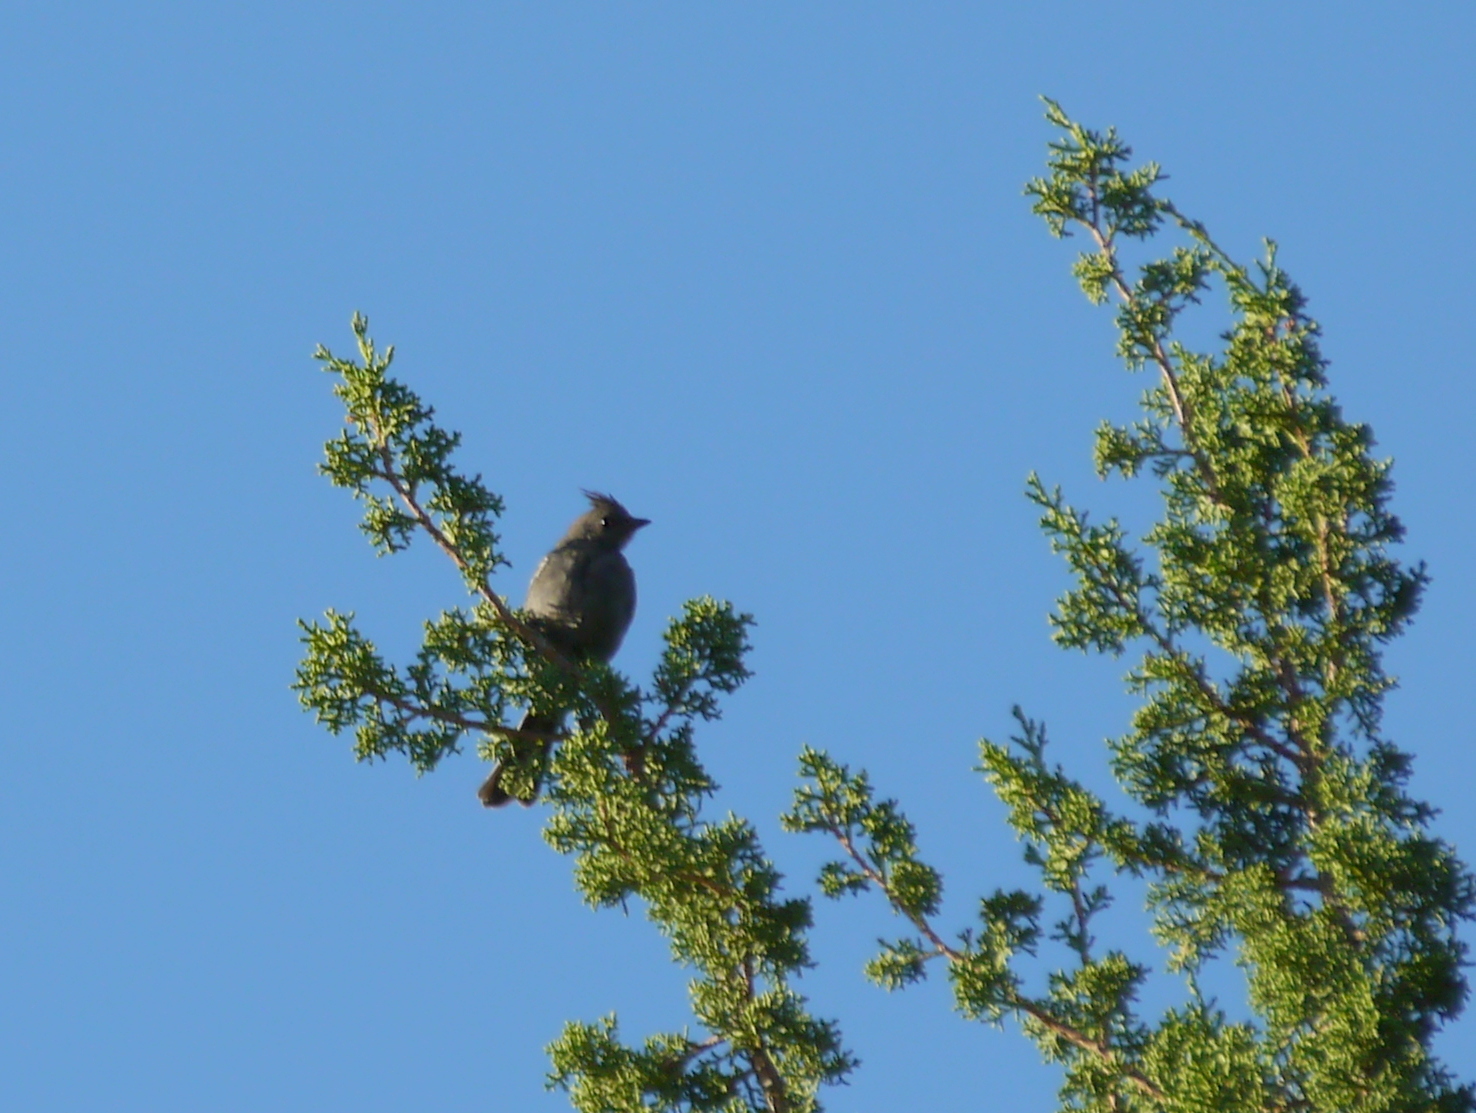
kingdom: Animalia
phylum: Chordata
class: Aves
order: Passeriformes
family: Ptilogonatidae
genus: Phainopepla
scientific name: Phainopepla nitens
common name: Phainopepla
